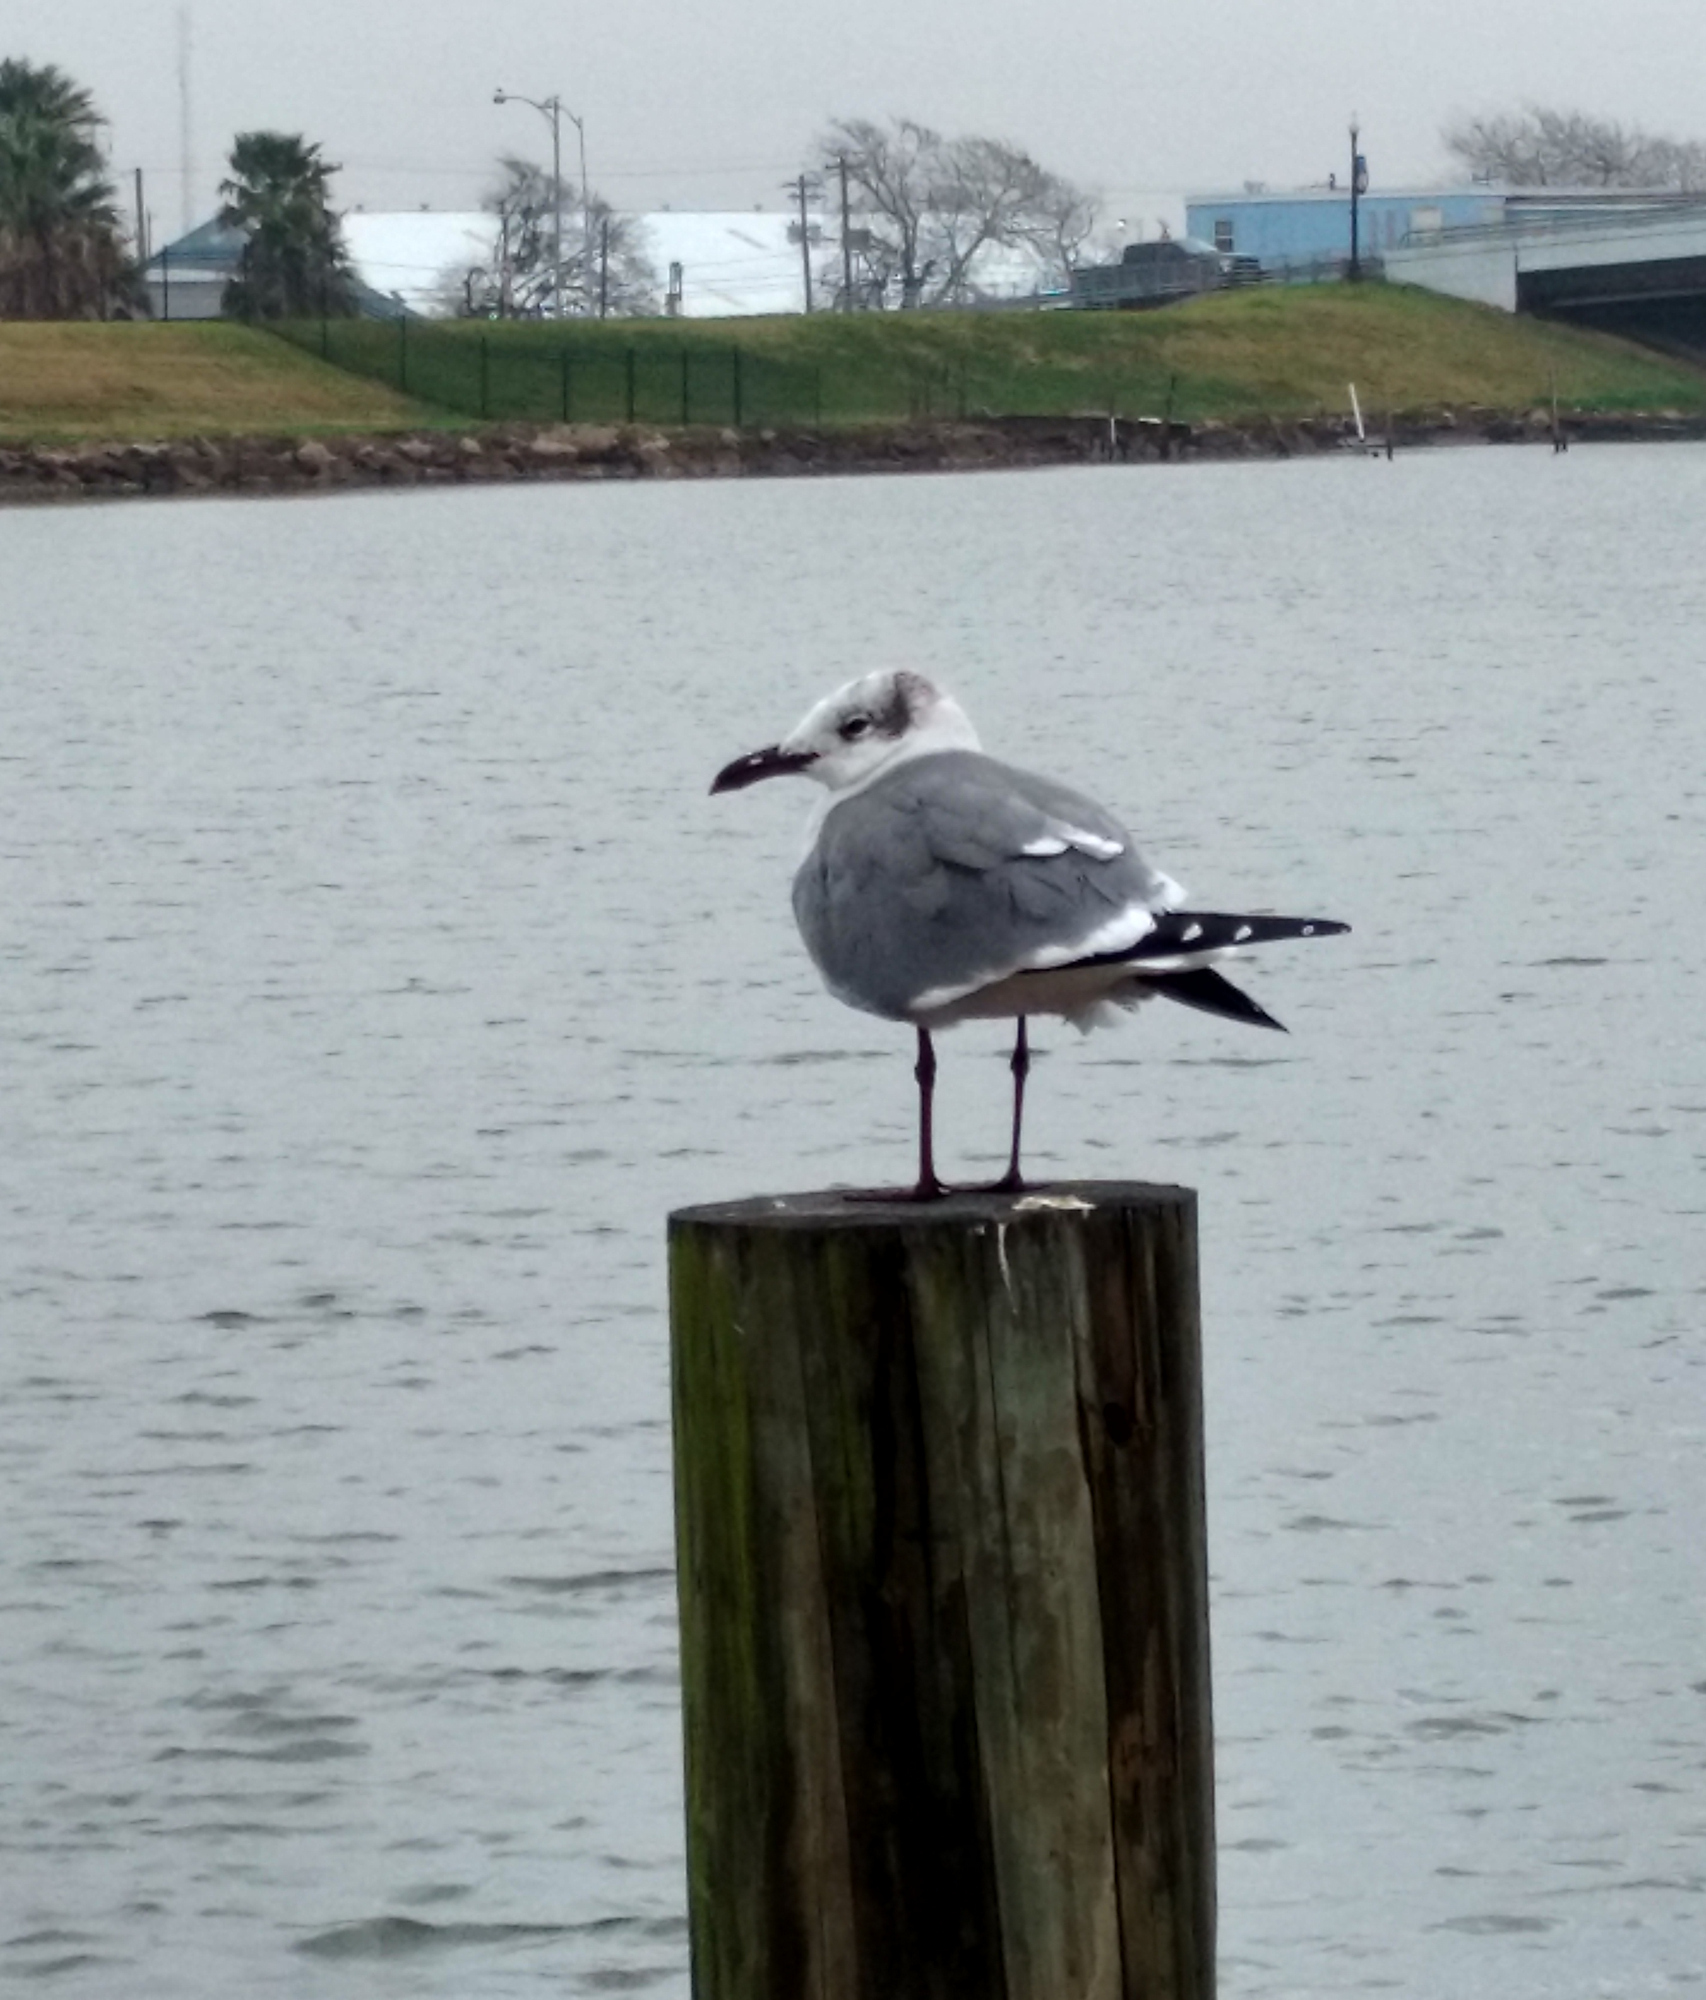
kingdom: Animalia
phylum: Chordata
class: Aves
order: Charadriiformes
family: Laridae
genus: Leucophaeus
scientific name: Leucophaeus atricilla
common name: Laughing gull
